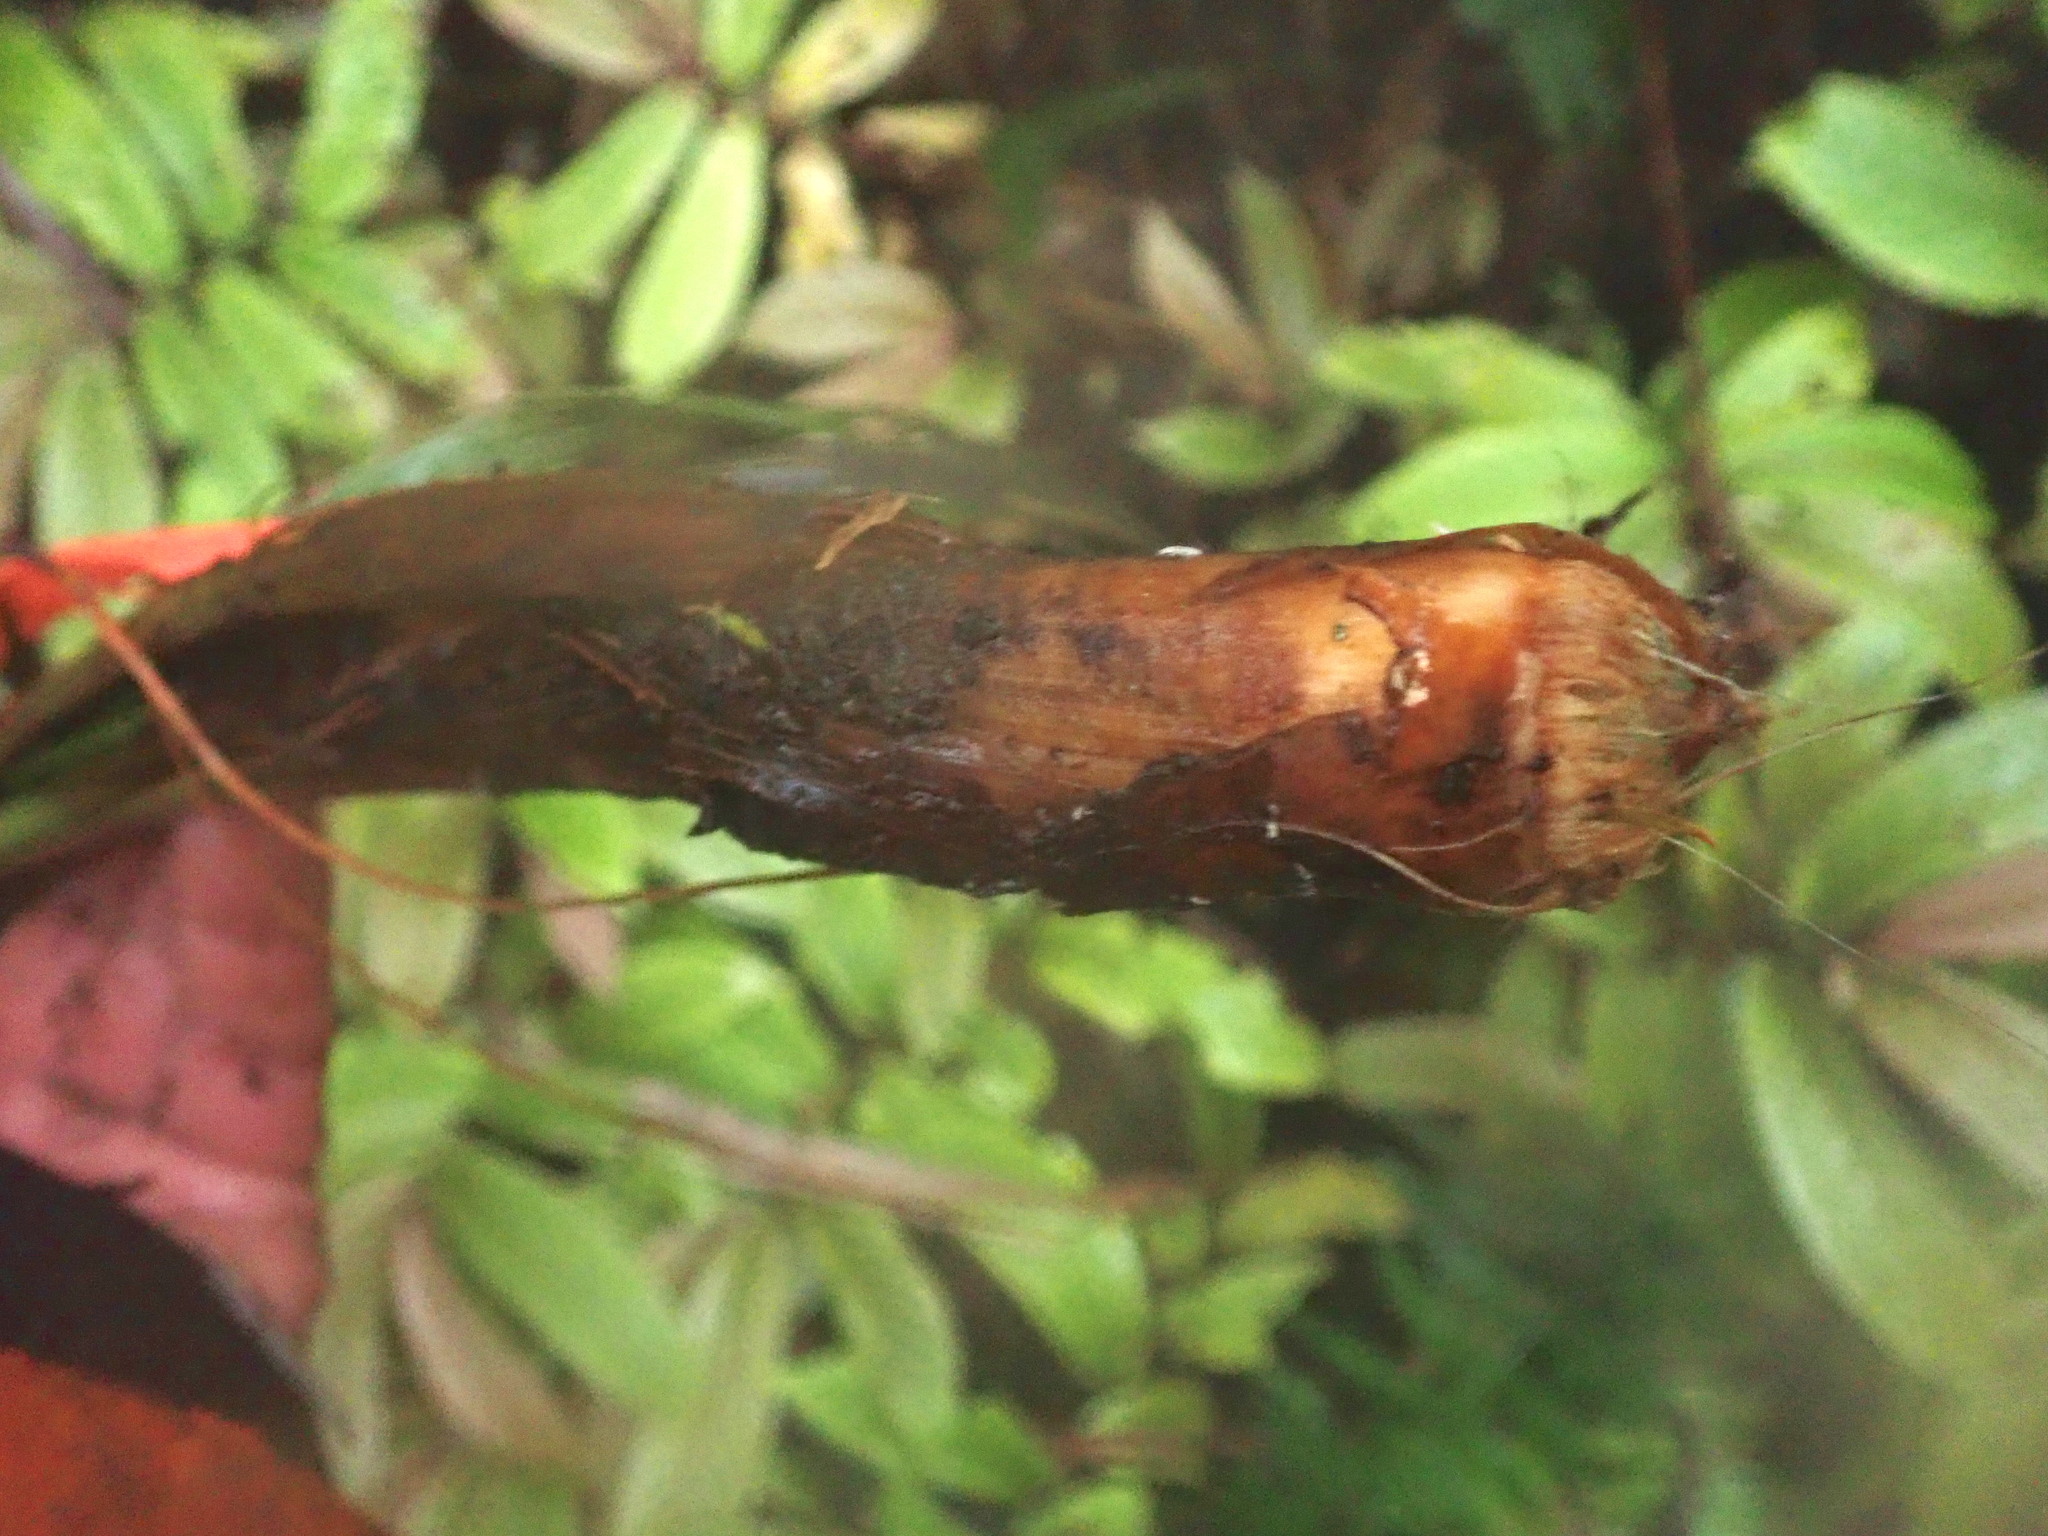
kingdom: Plantae
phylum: Tracheophyta
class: Liliopsida
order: Arecales
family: Arecaceae
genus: Phoenix
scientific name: Phoenix canariensis
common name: Canary island date palm
